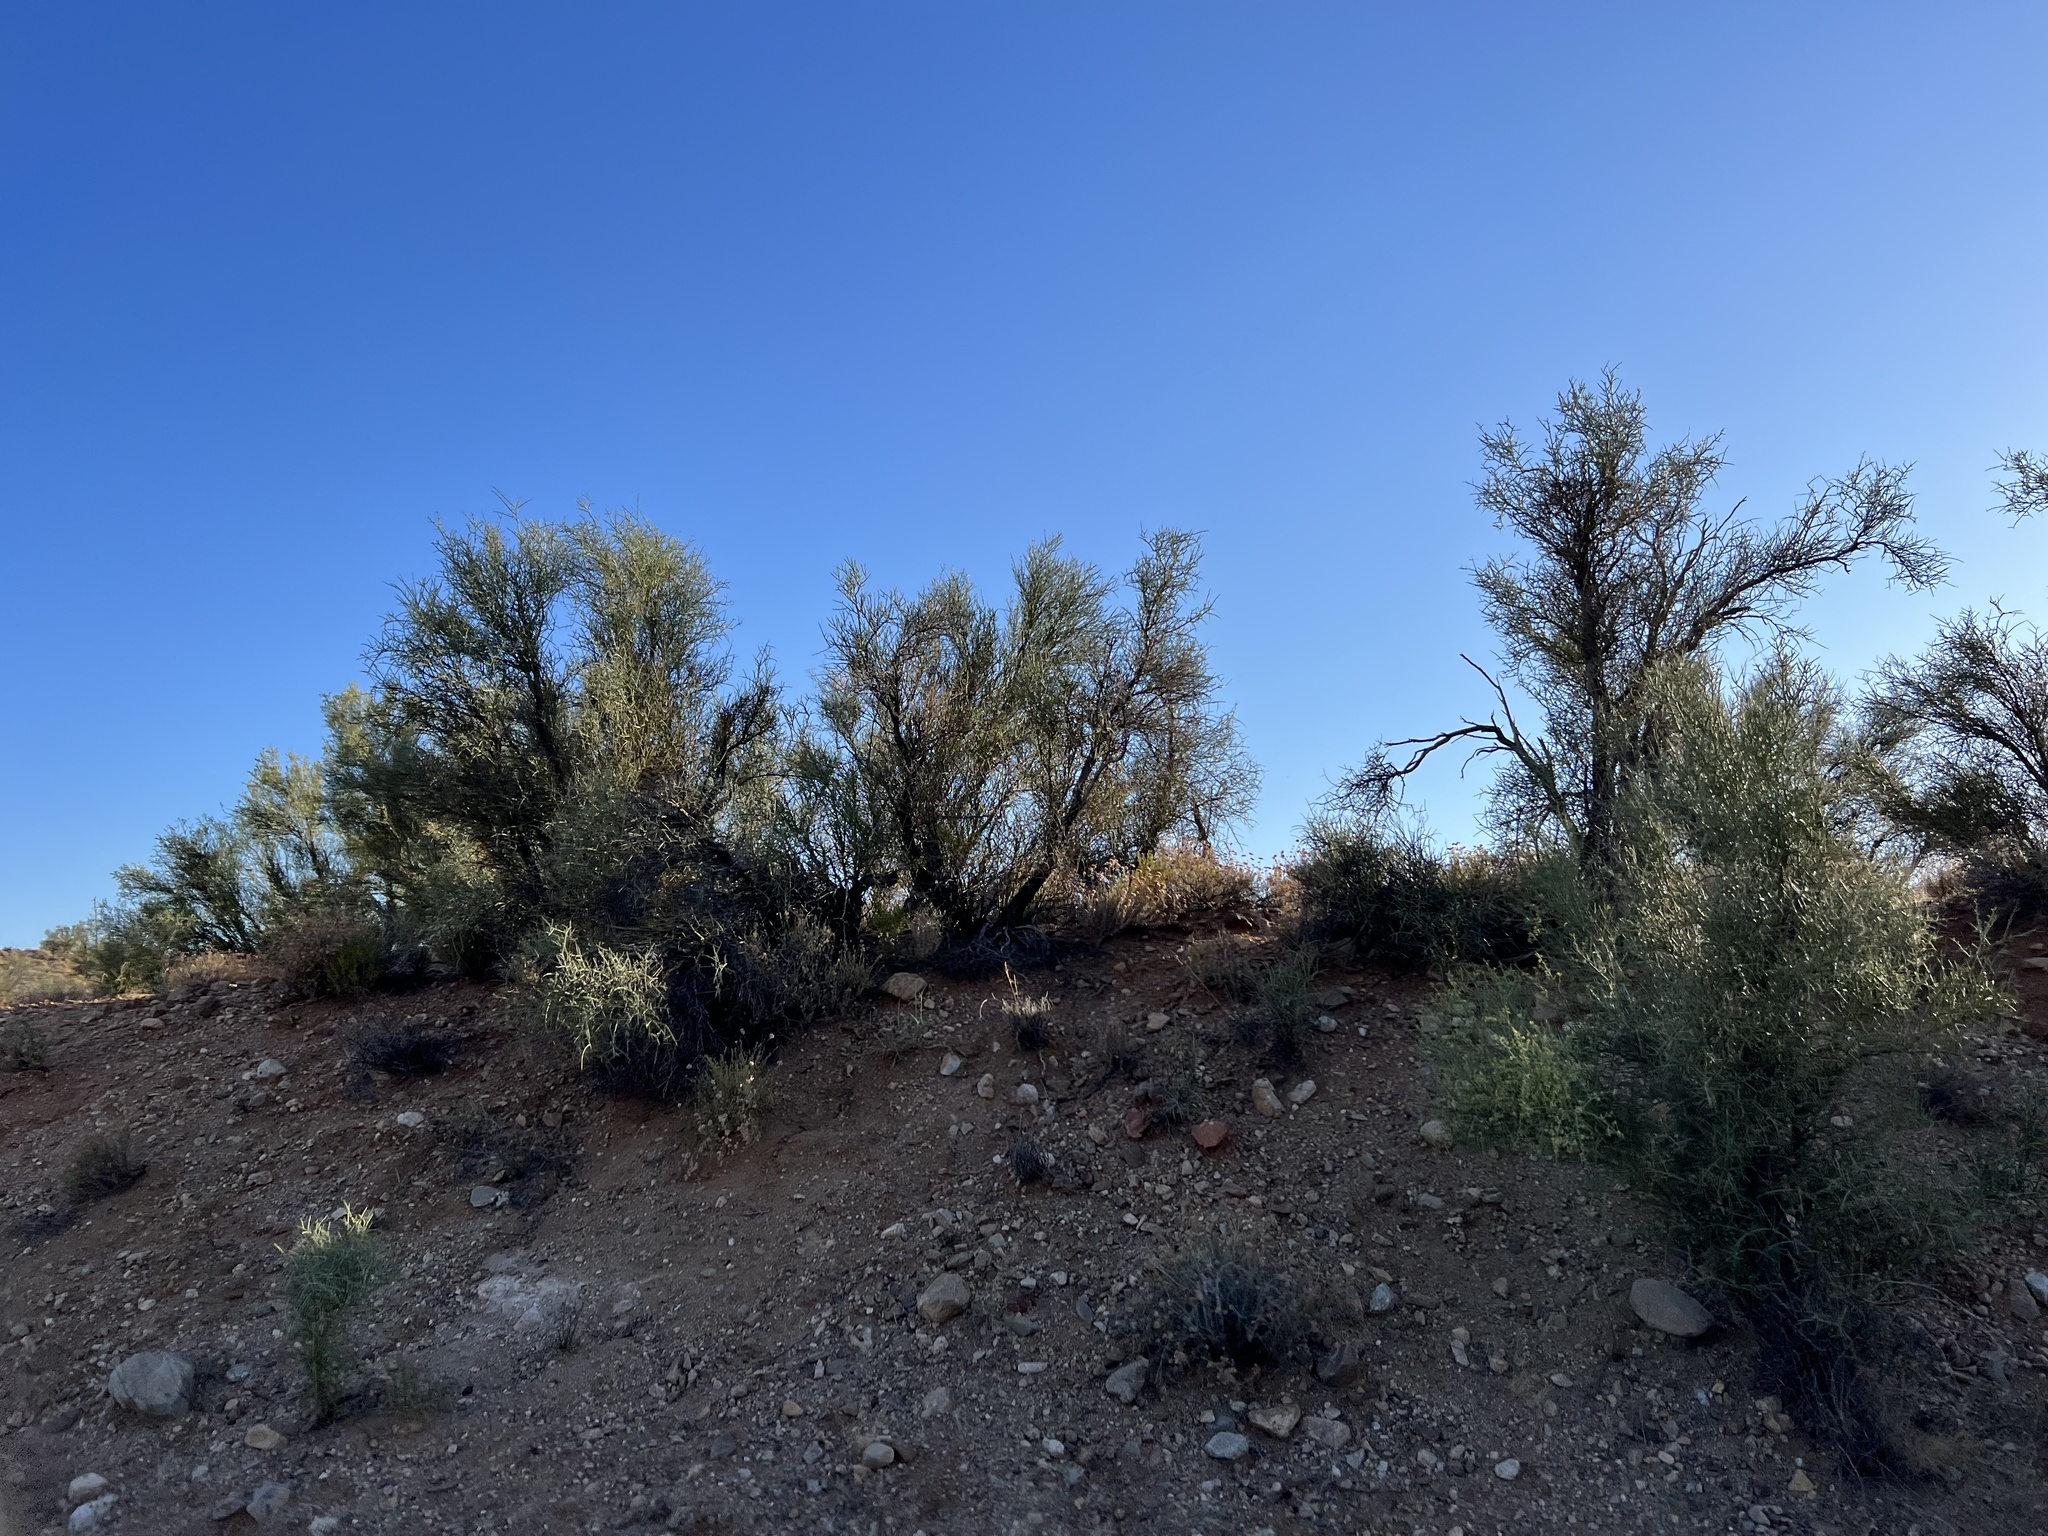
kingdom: Plantae
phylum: Tracheophyta
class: Magnoliopsida
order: Celastrales
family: Celastraceae
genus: Canotia
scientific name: Canotia holacantha
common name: Crucifixion thorns
